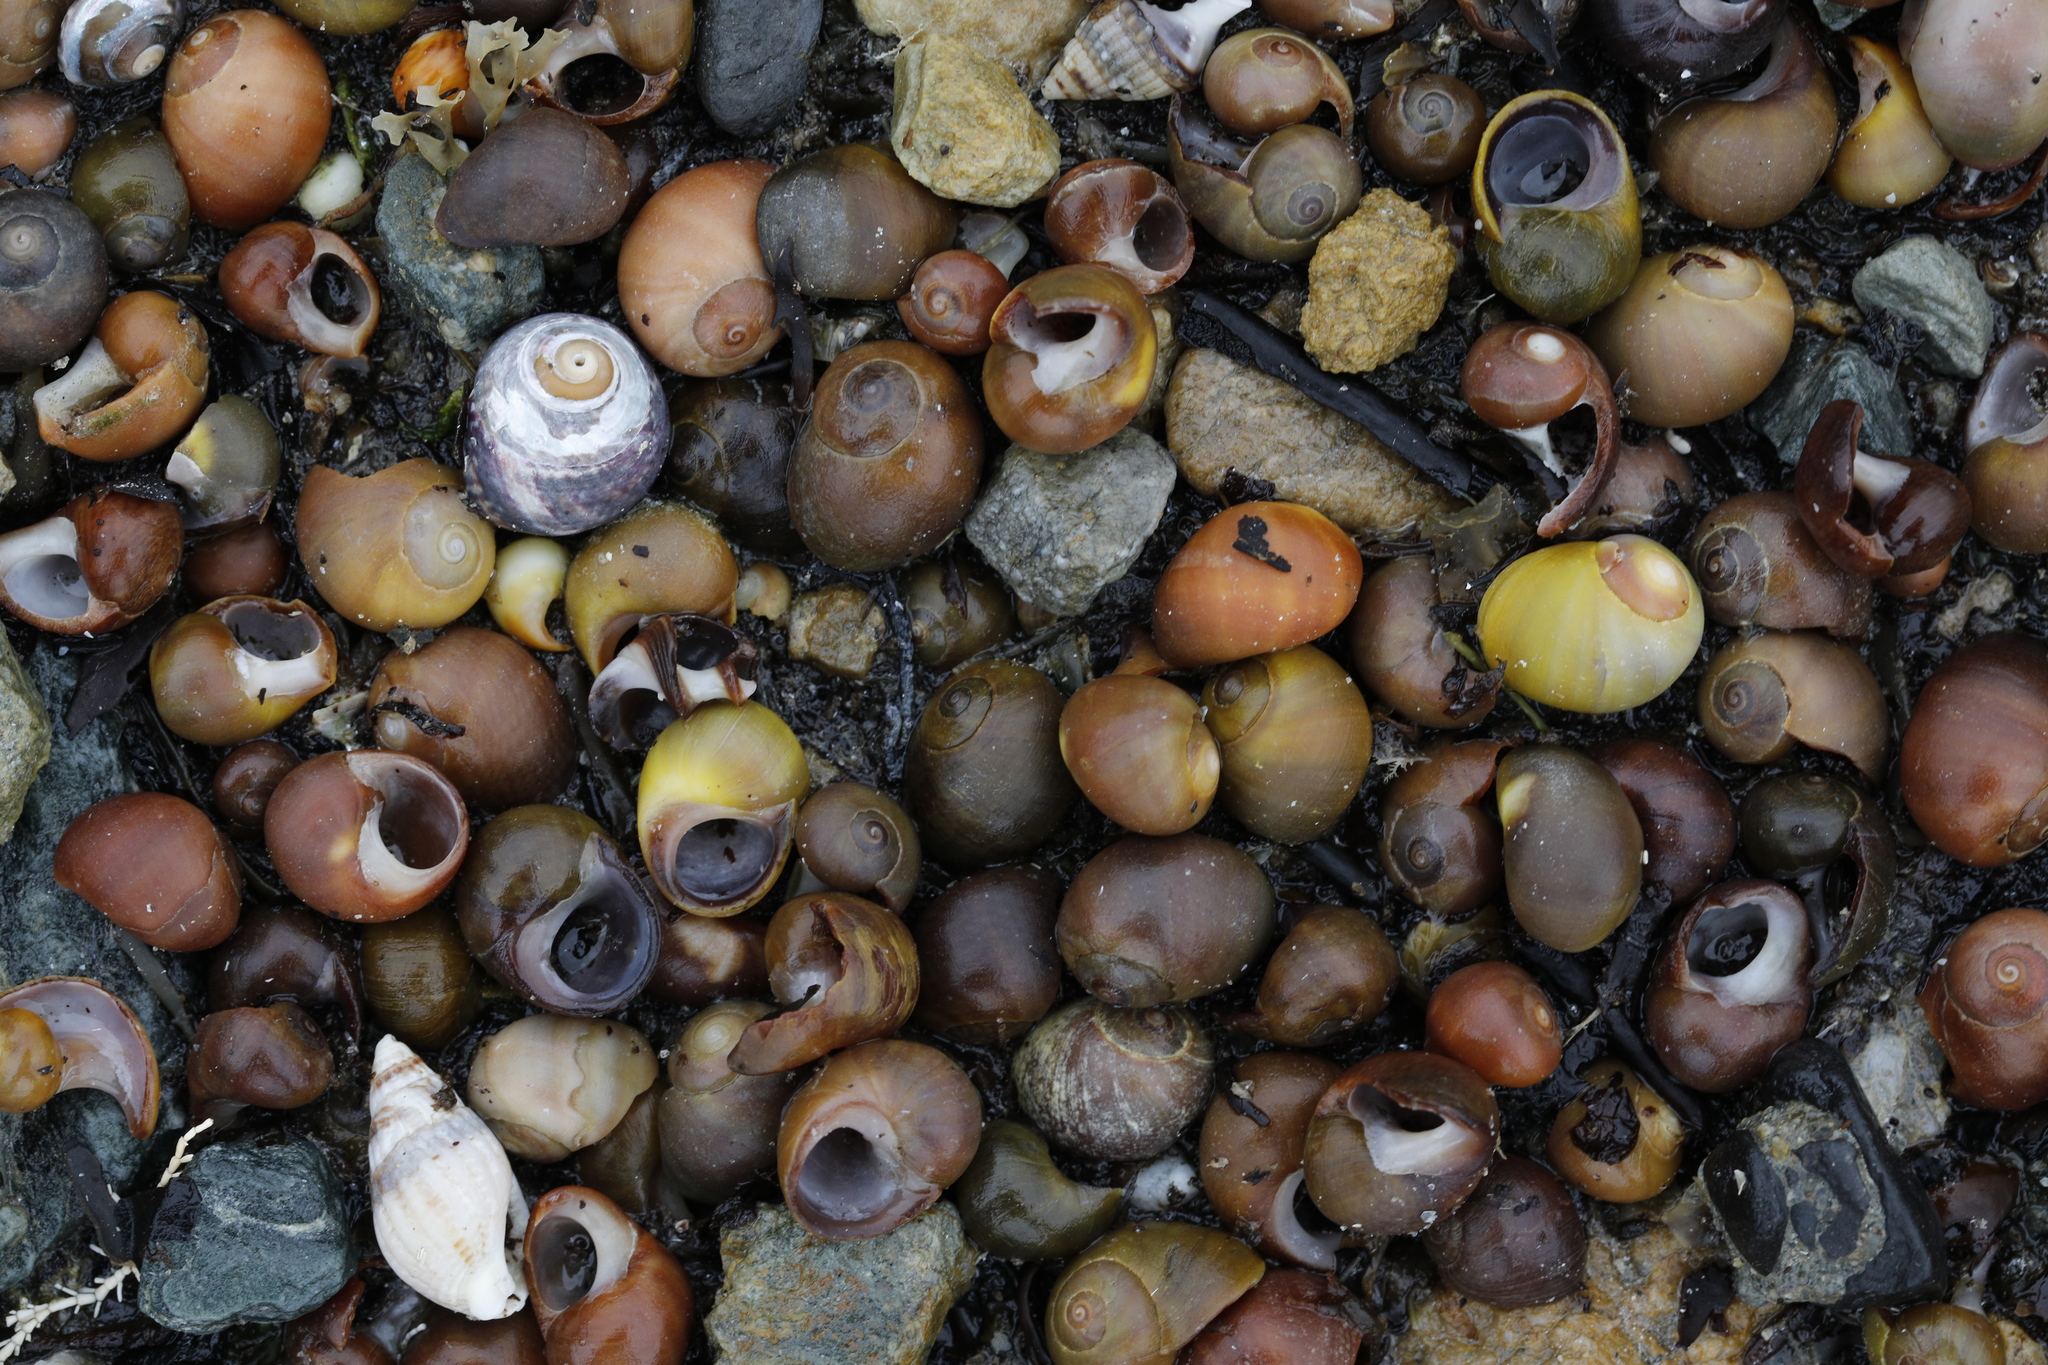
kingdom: Animalia
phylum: Mollusca
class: Gastropoda
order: Littorinimorpha
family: Littorinidae
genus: Littorina
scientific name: Littorina obtusata
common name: Flat periwinkle
